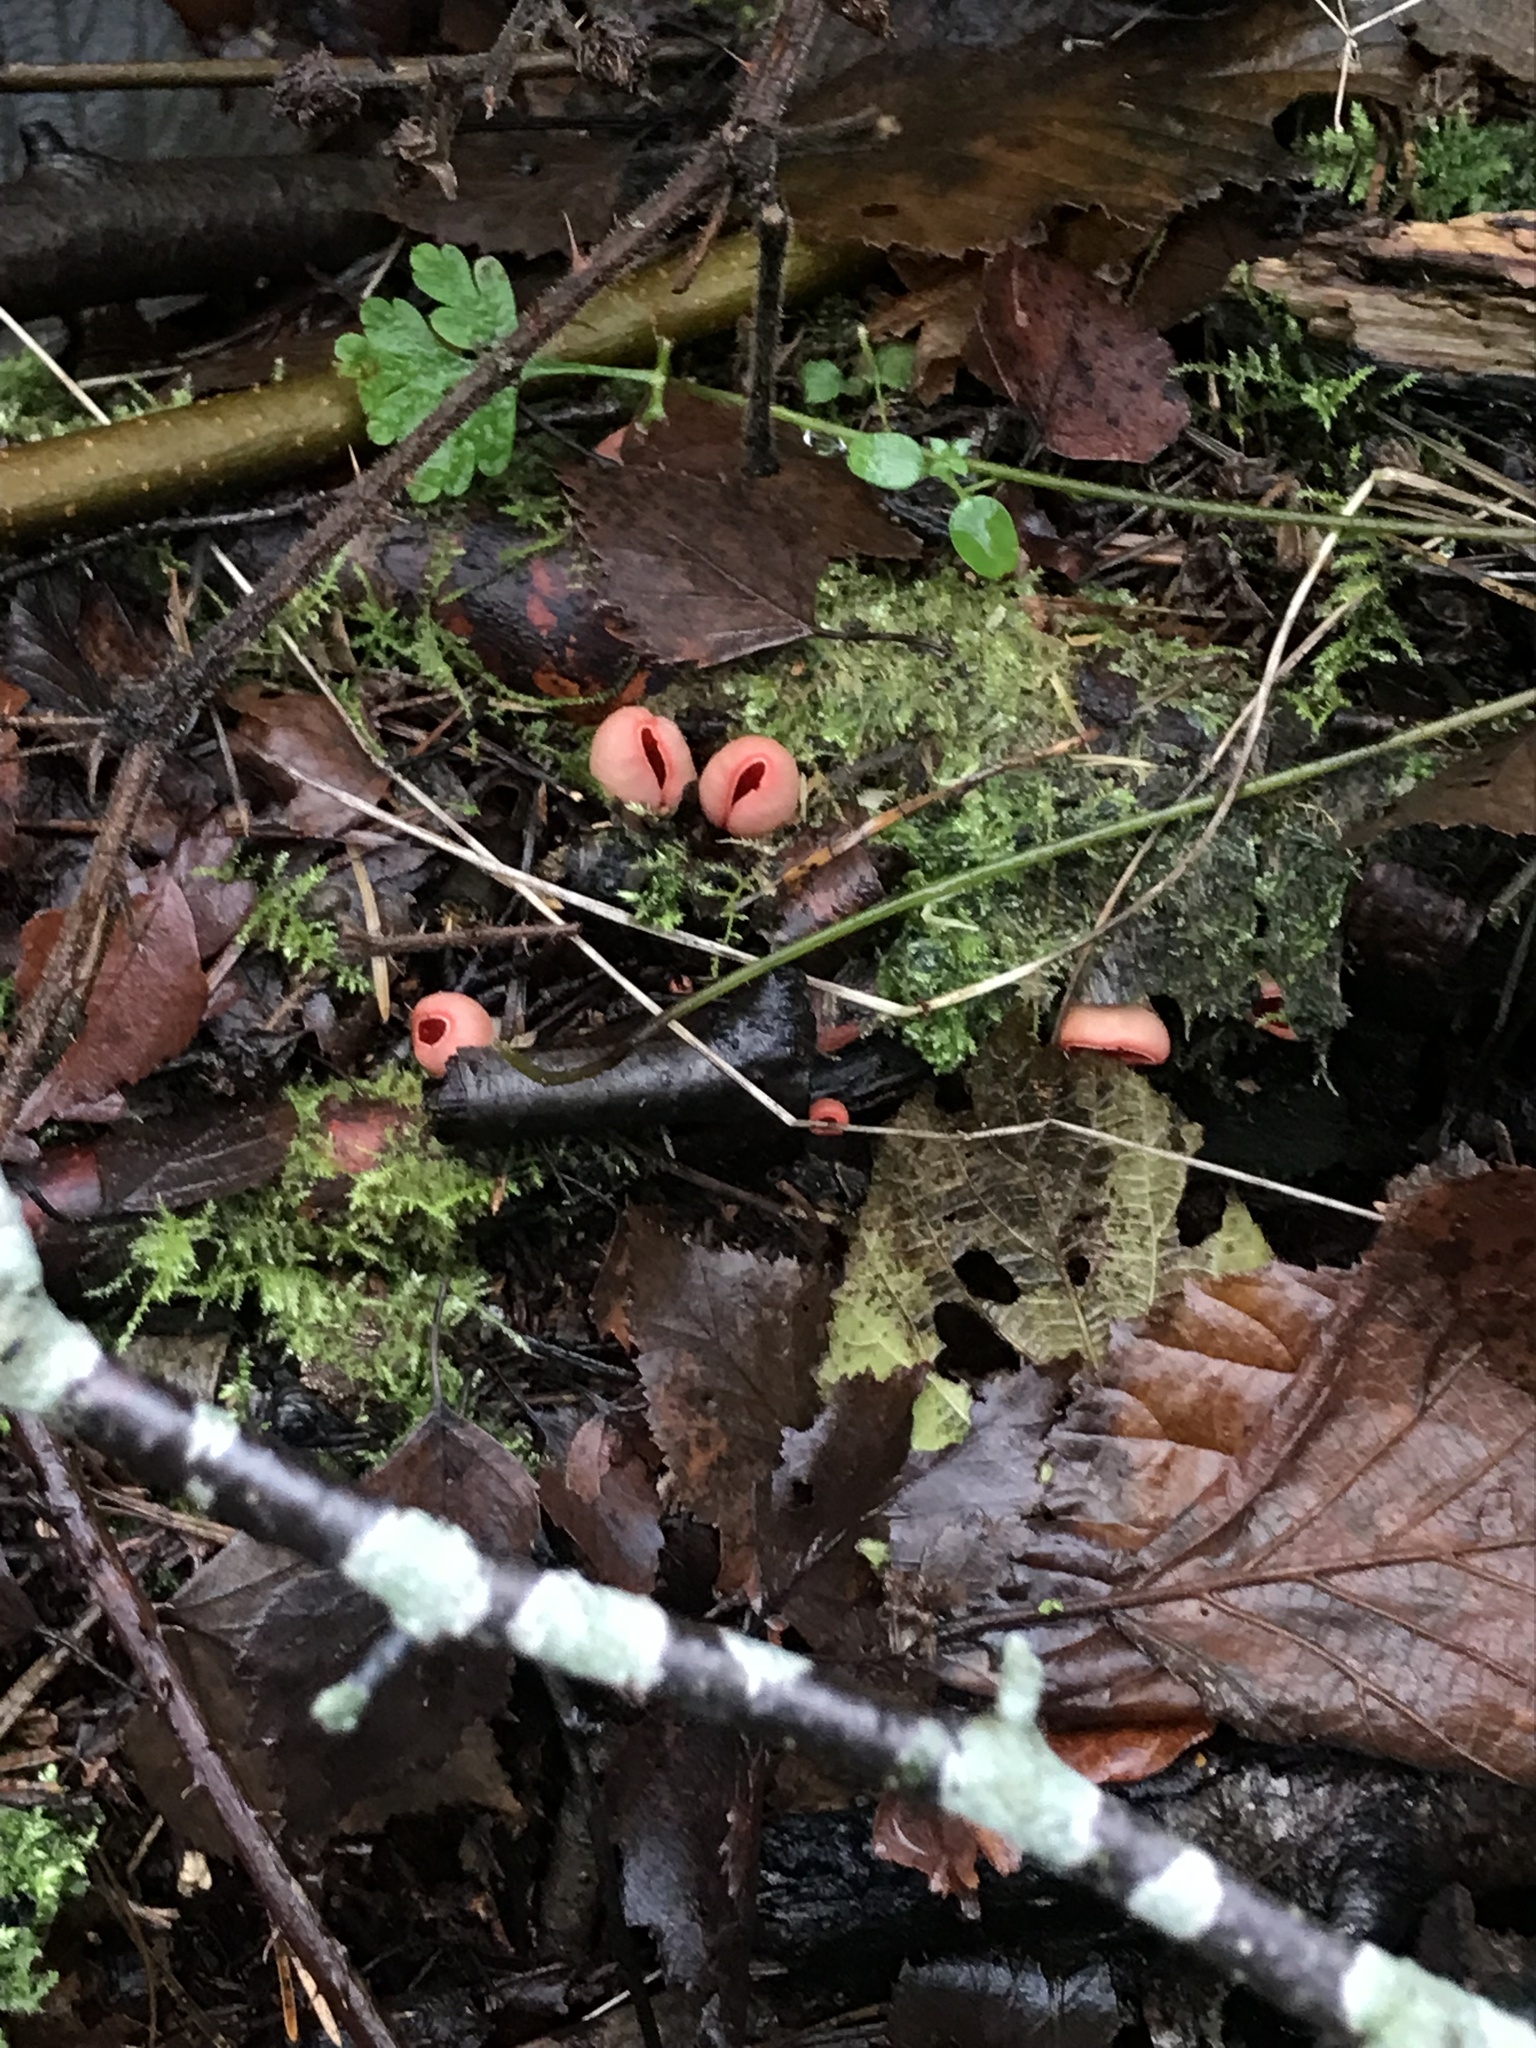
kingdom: Fungi
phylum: Ascomycota
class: Pezizomycetes
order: Pezizales
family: Sarcoscyphaceae
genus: Sarcoscypha
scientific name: Sarcoscypha
